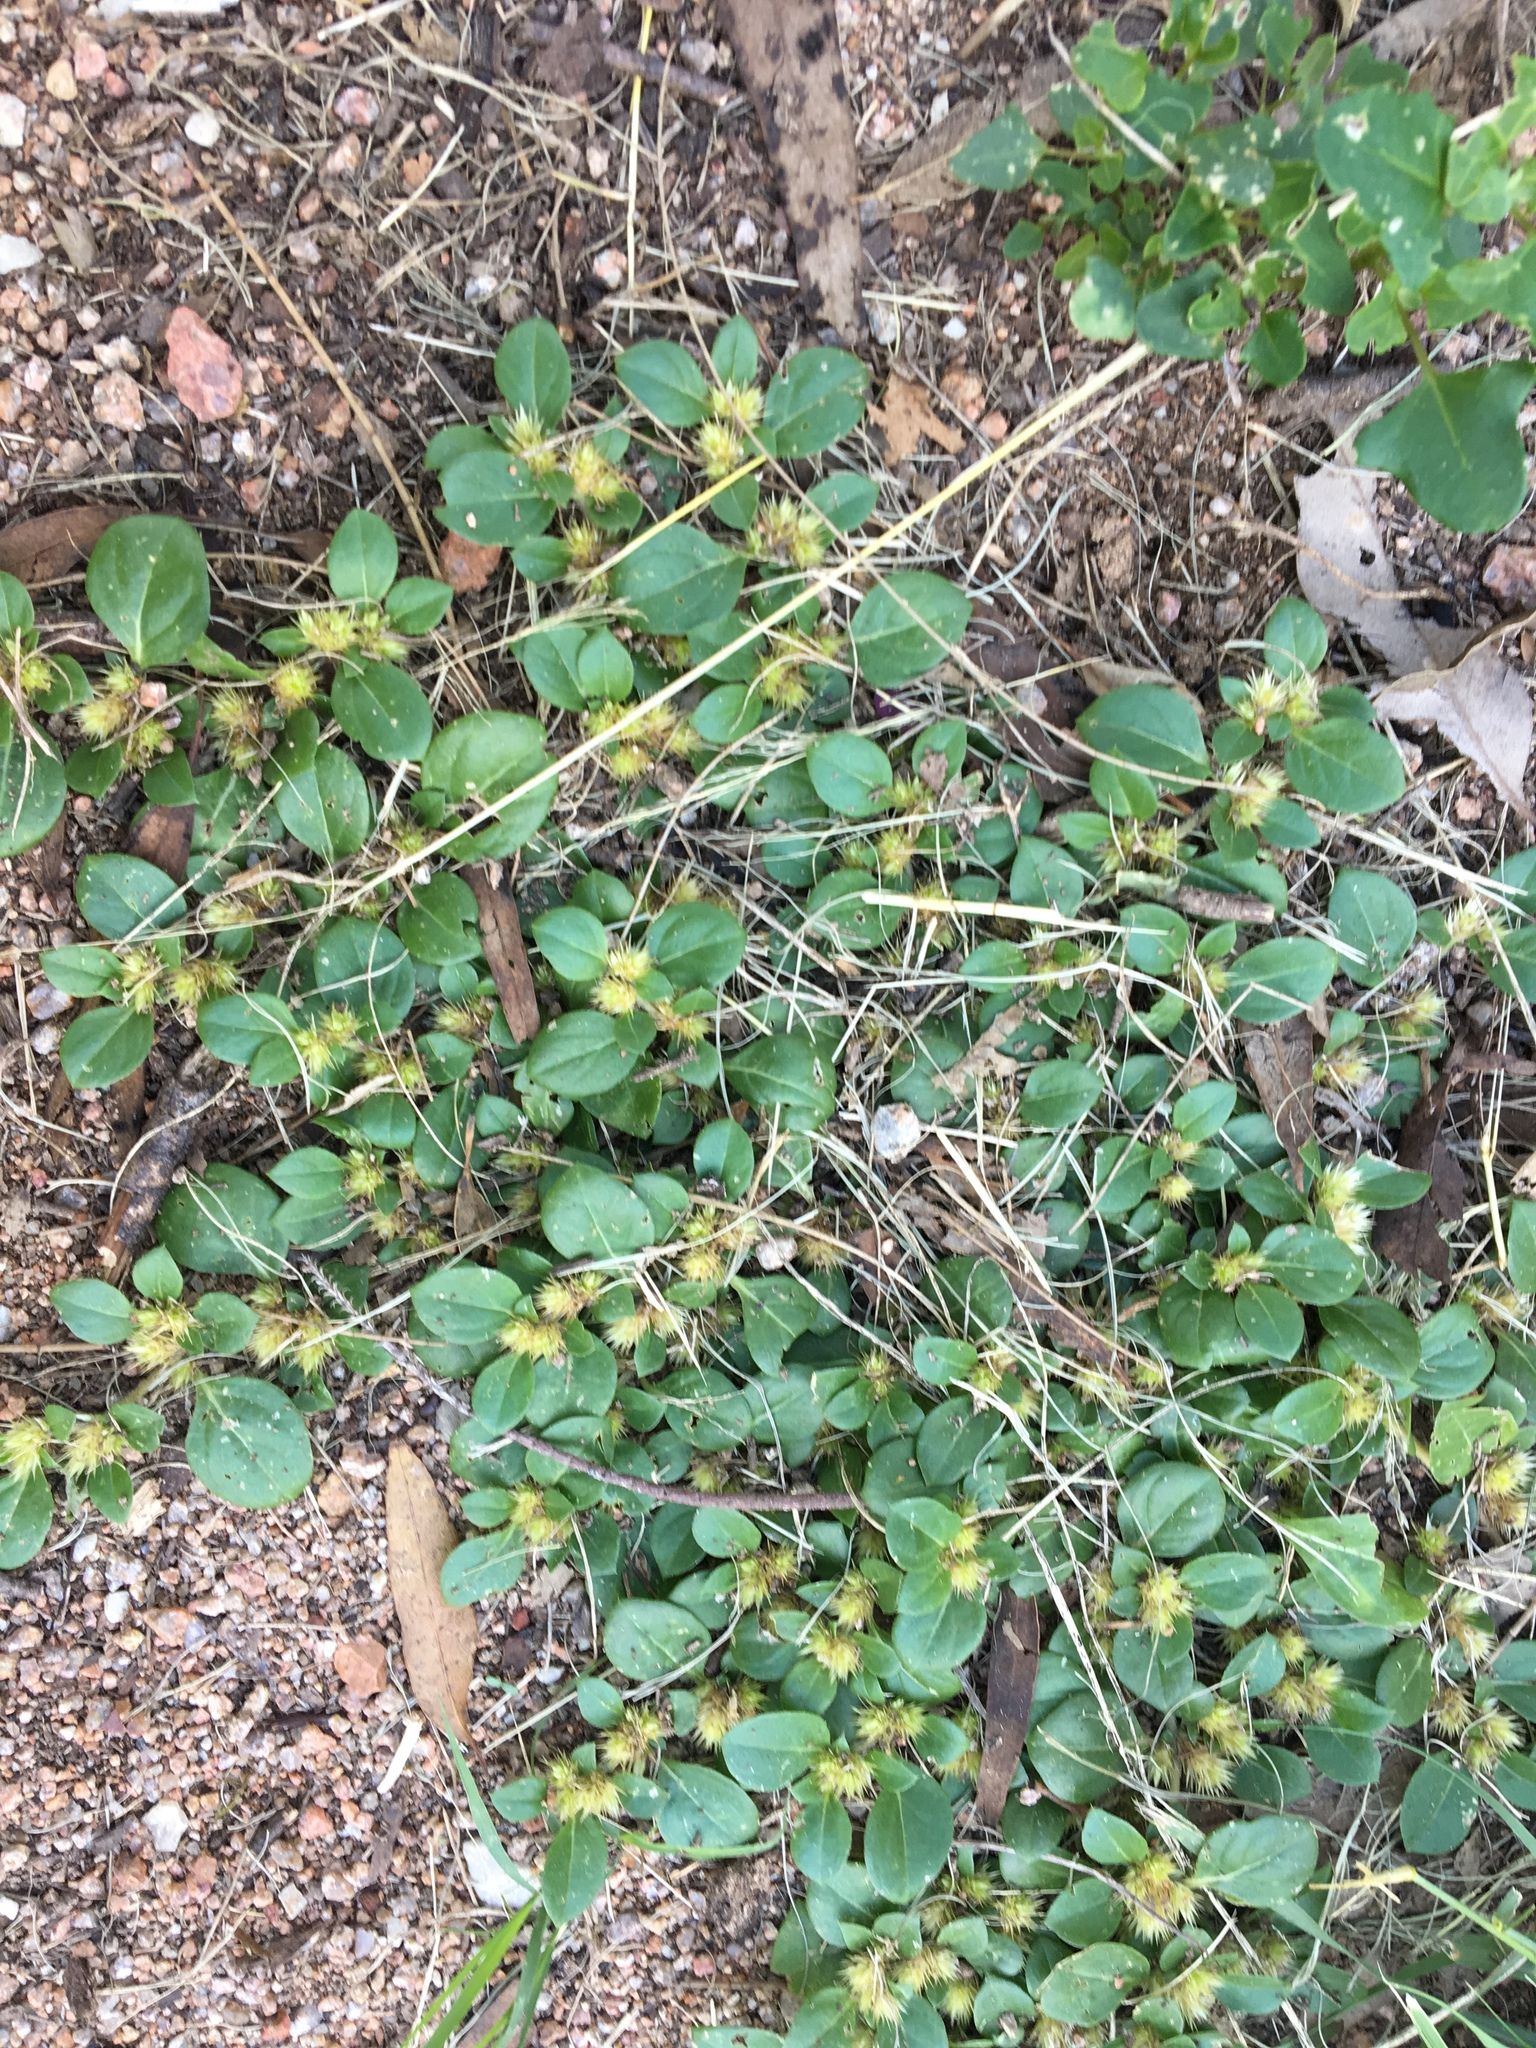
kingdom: Plantae
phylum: Tracheophyta
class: Magnoliopsida
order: Caryophyllales
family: Amaranthaceae
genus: Alternanthera
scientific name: Alternanthera pungens
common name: Khakiweed
